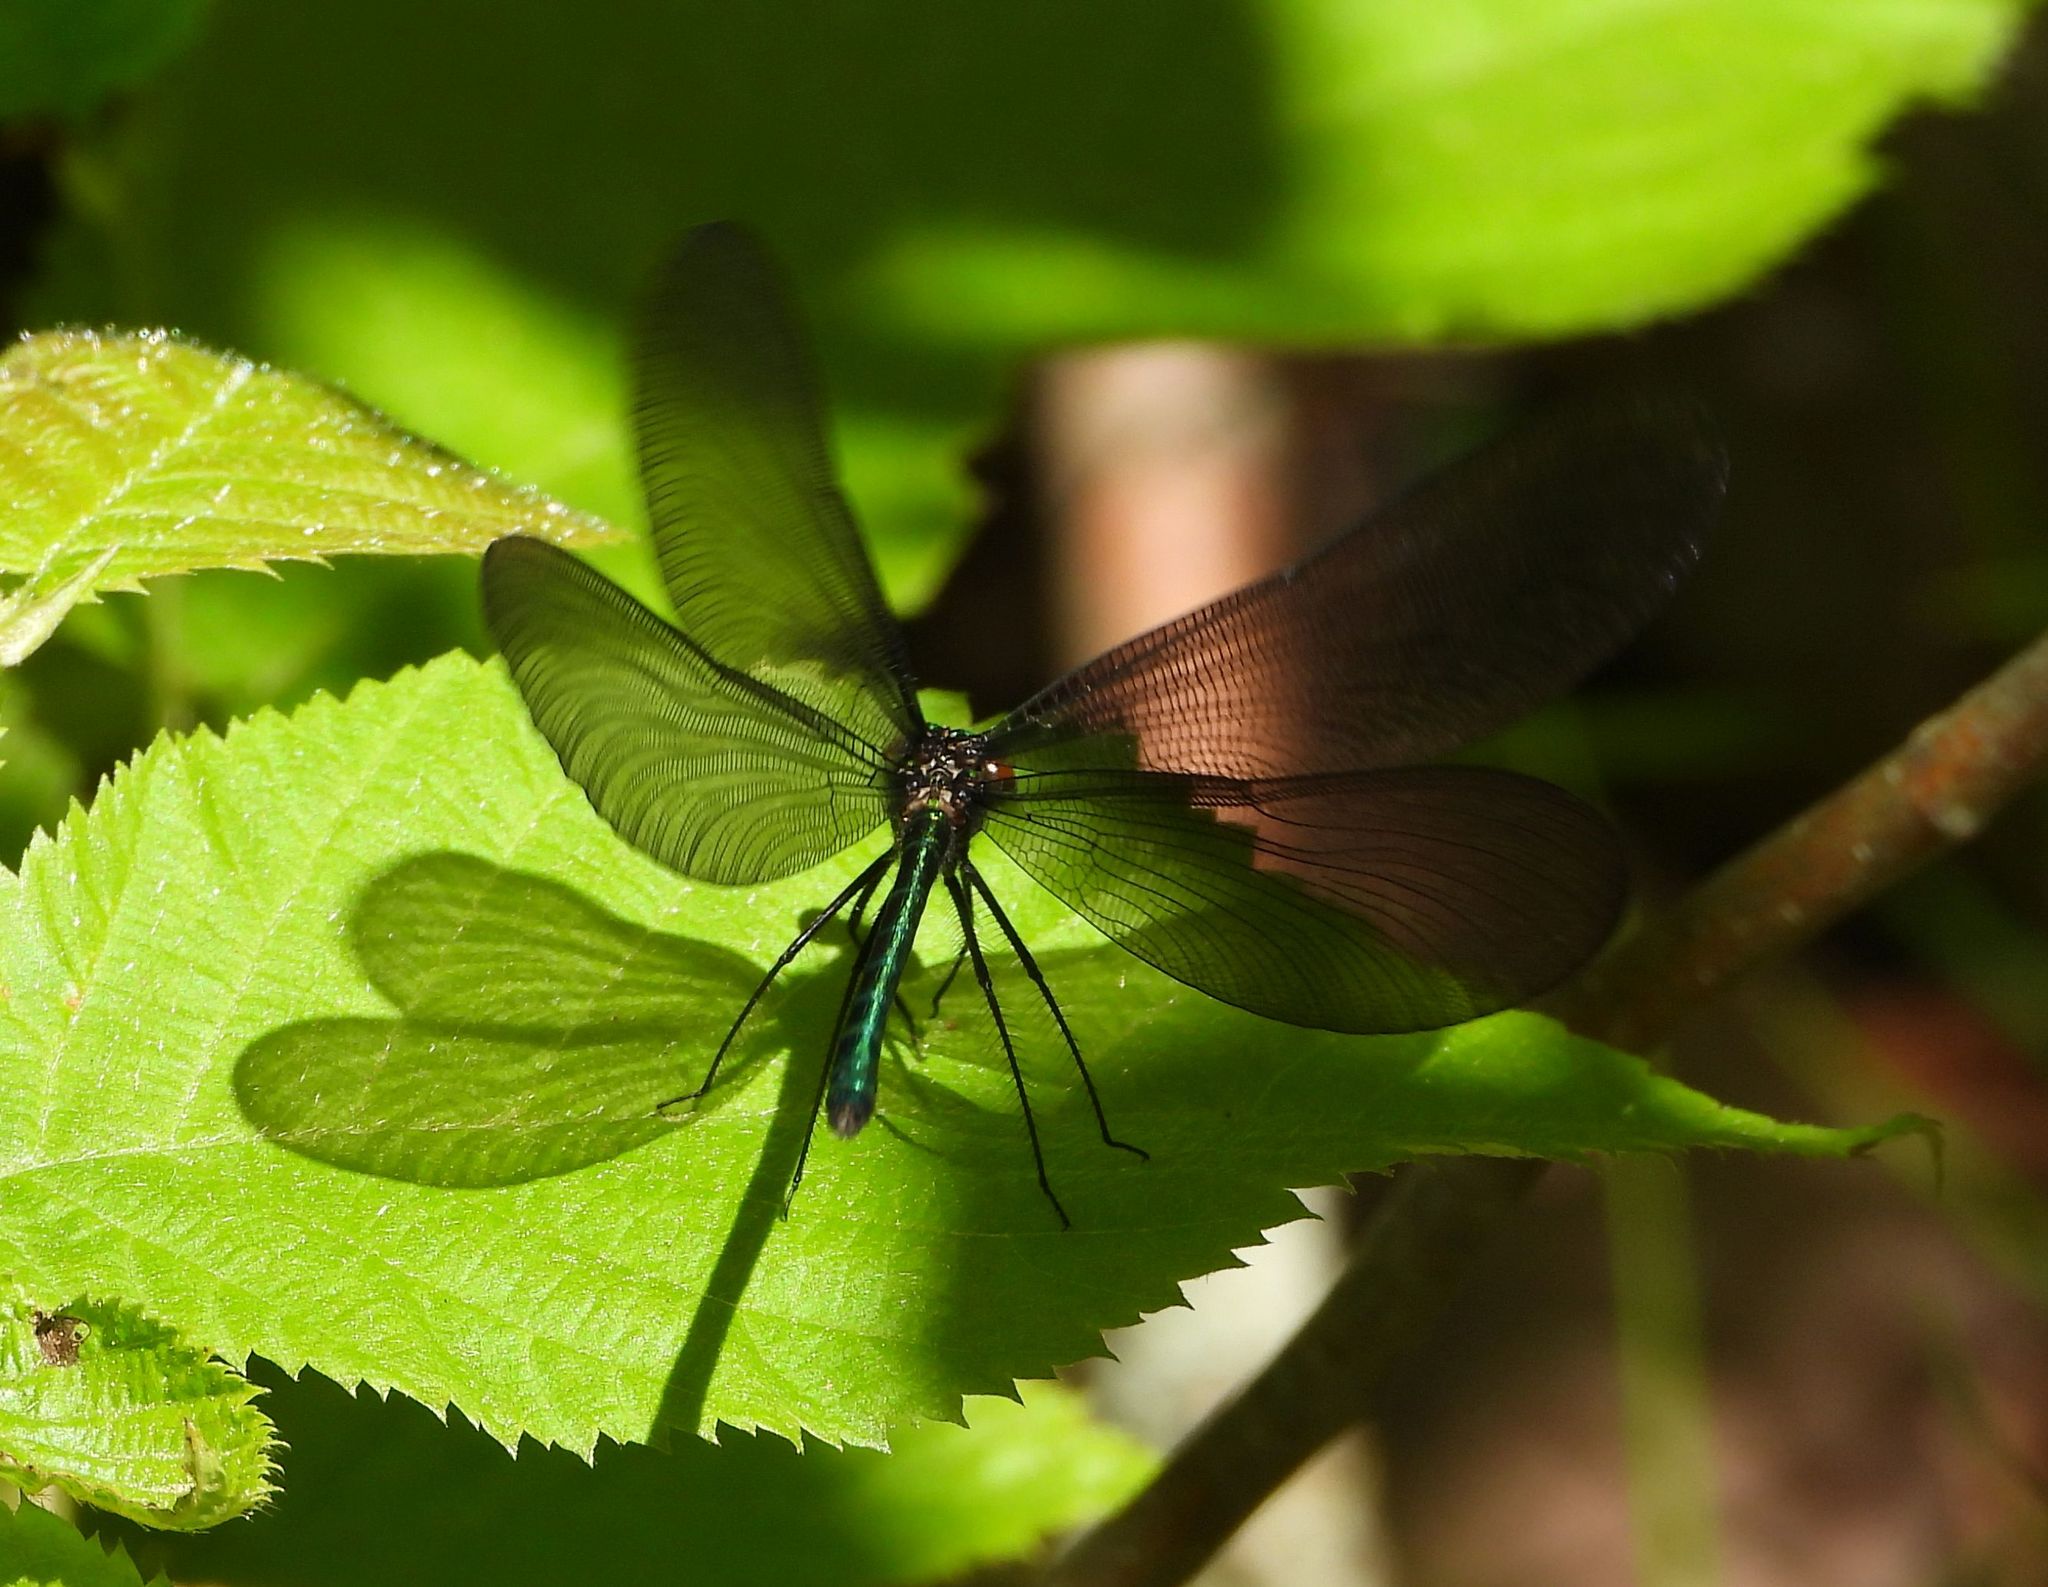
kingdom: Animalia
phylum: Arthropoda
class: Insecta
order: Odonata
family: Calopterygidae
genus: Calopteryx
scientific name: Calopteryx maculata
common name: Ebony jewelwing
